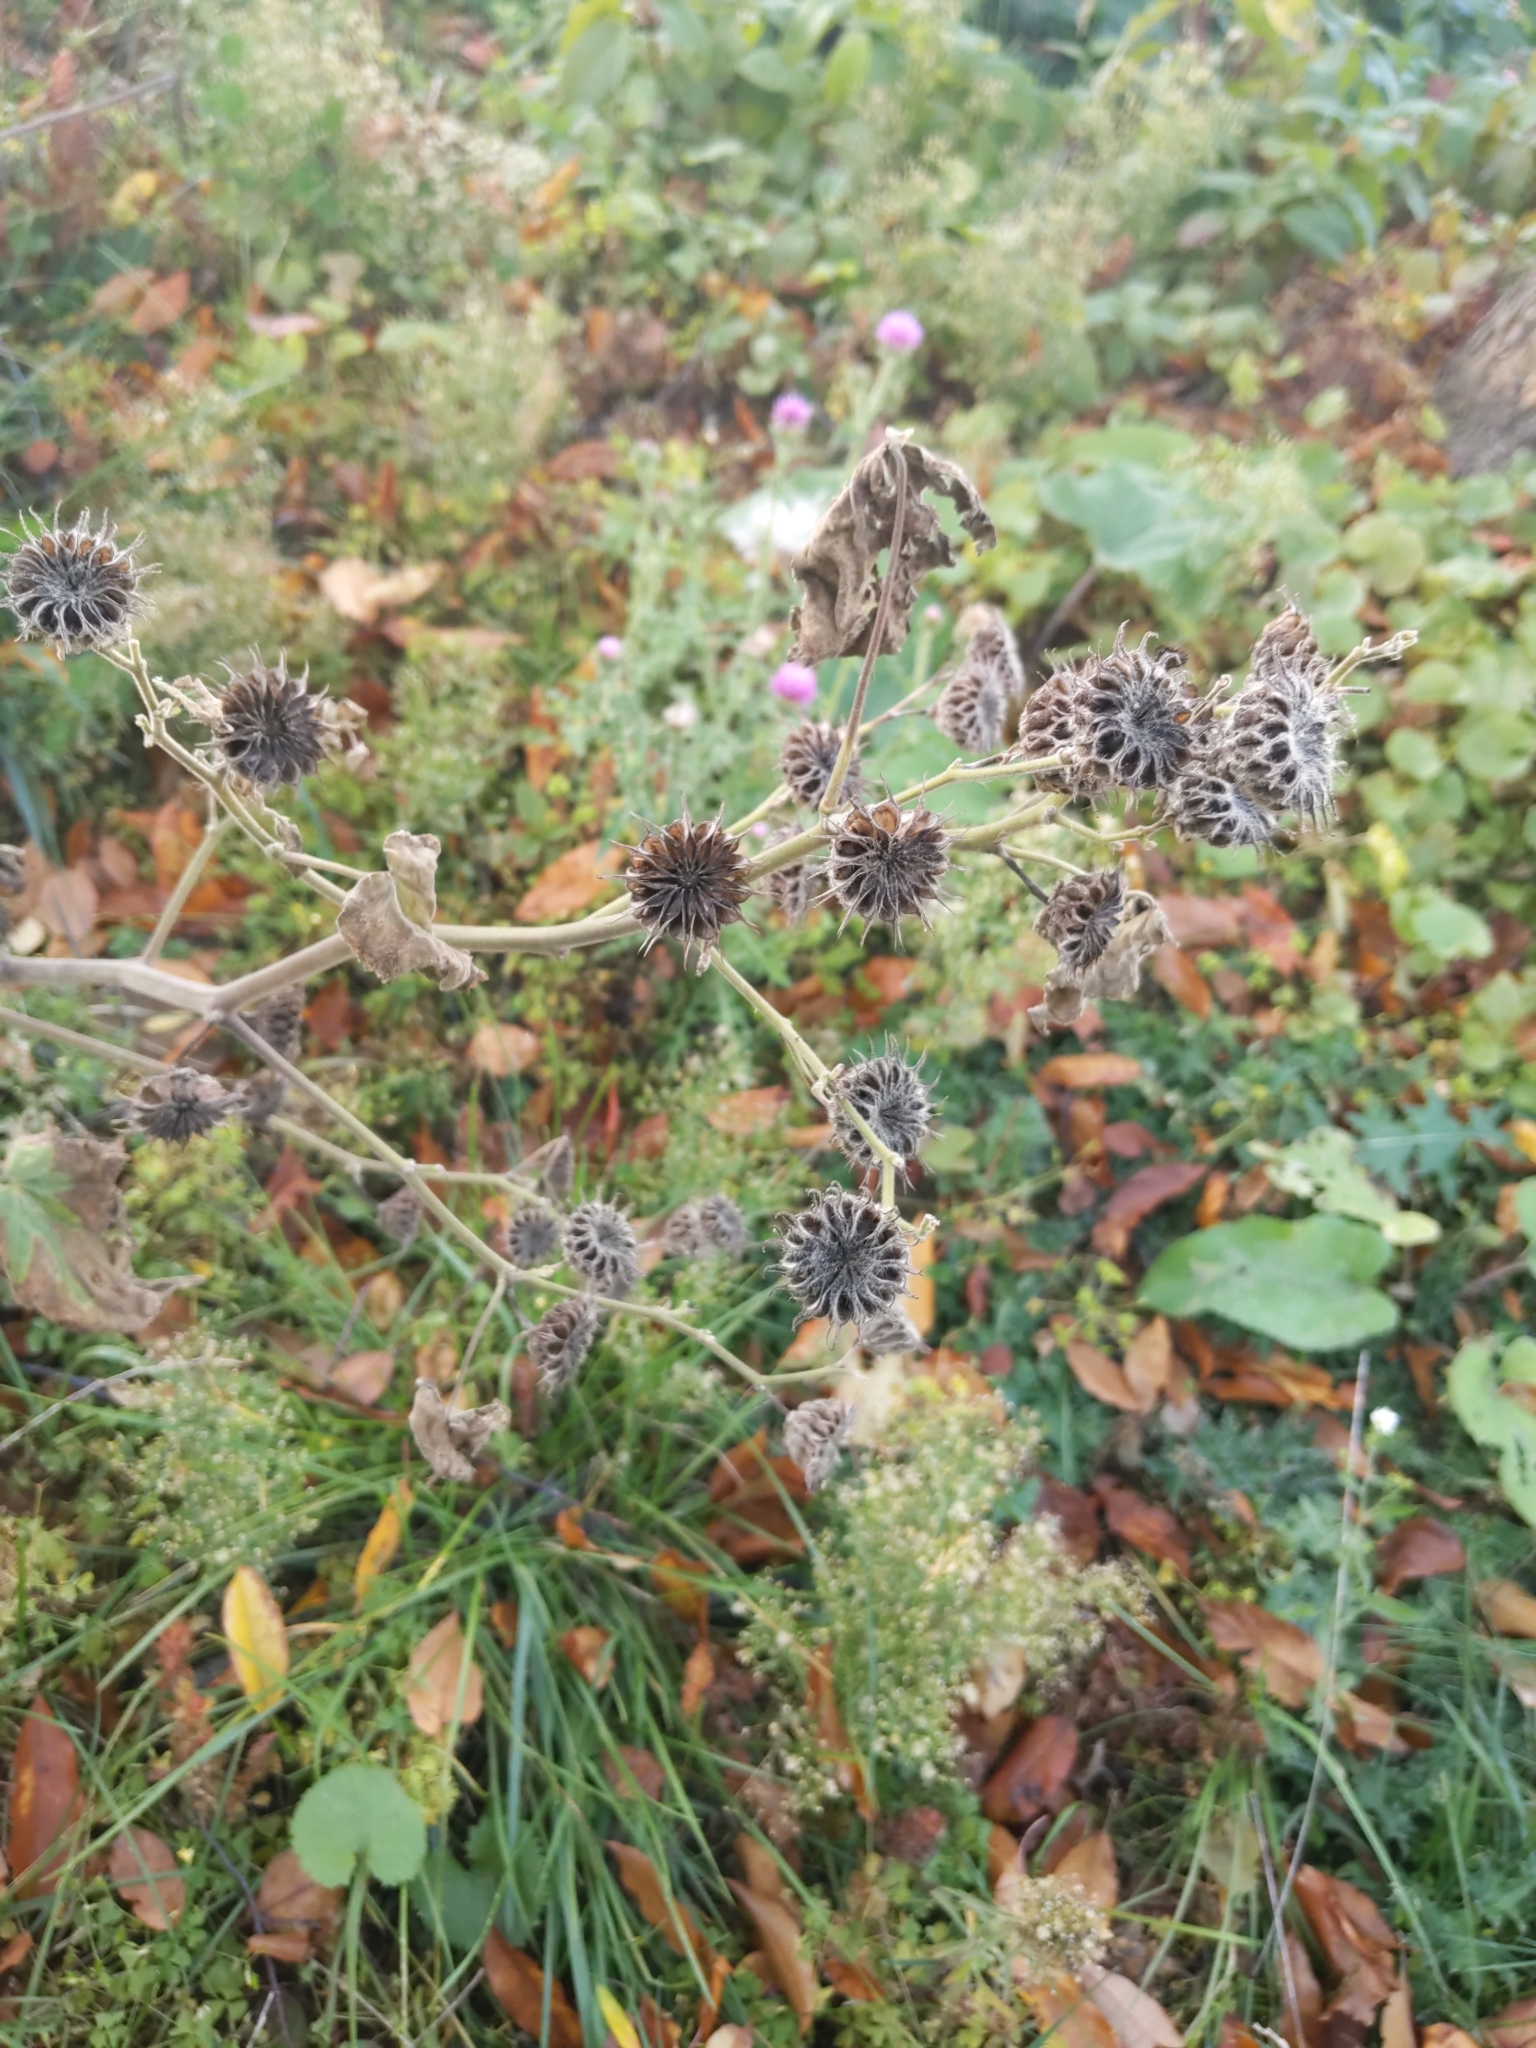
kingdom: Plantae
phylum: Tracheophyta
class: Magnoliopsida
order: Malvales
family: Malvaceae
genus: Abutilon
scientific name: Abutilon theophrasti
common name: Velvetleaf
